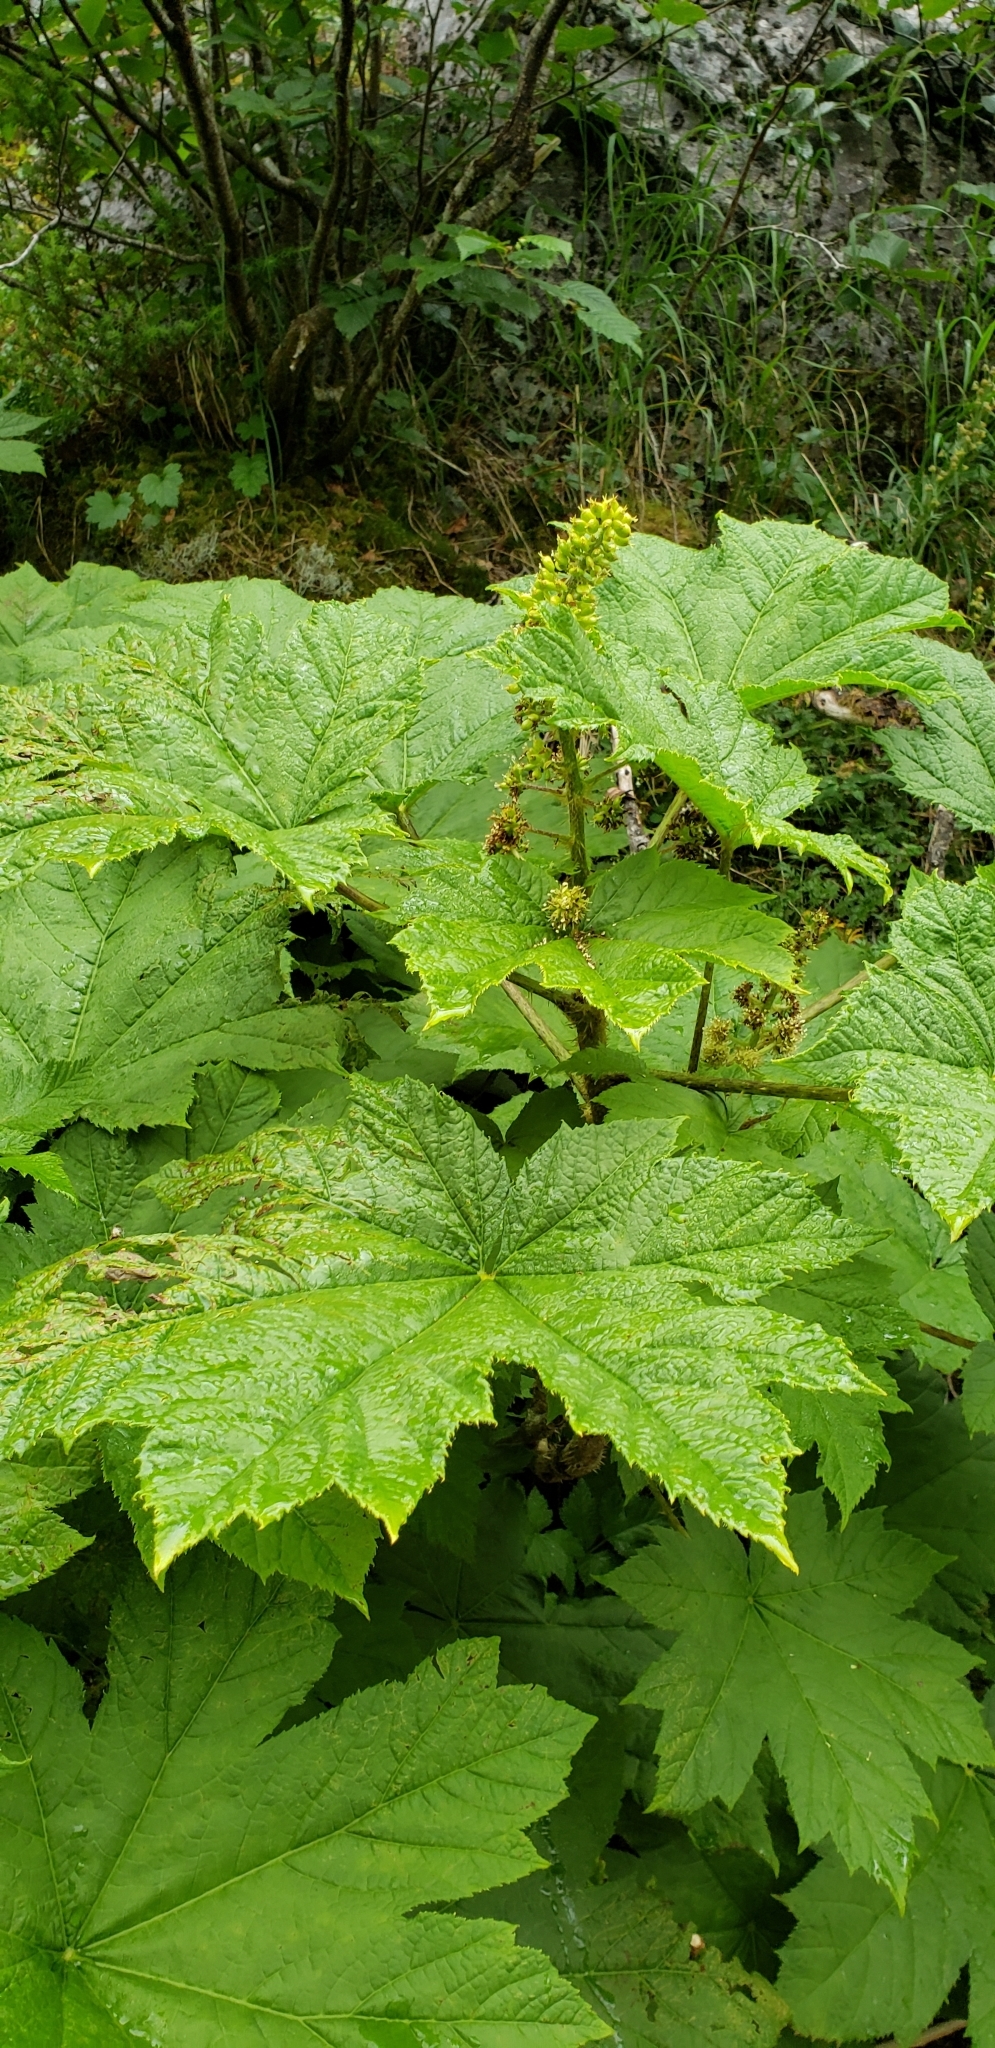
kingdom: Plantae
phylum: Tracheophyta
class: Magnoliopsida
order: Apiales
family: Araliaceae
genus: Oplopanax
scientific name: Oplopanax horridus
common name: Devil's walking-stick
